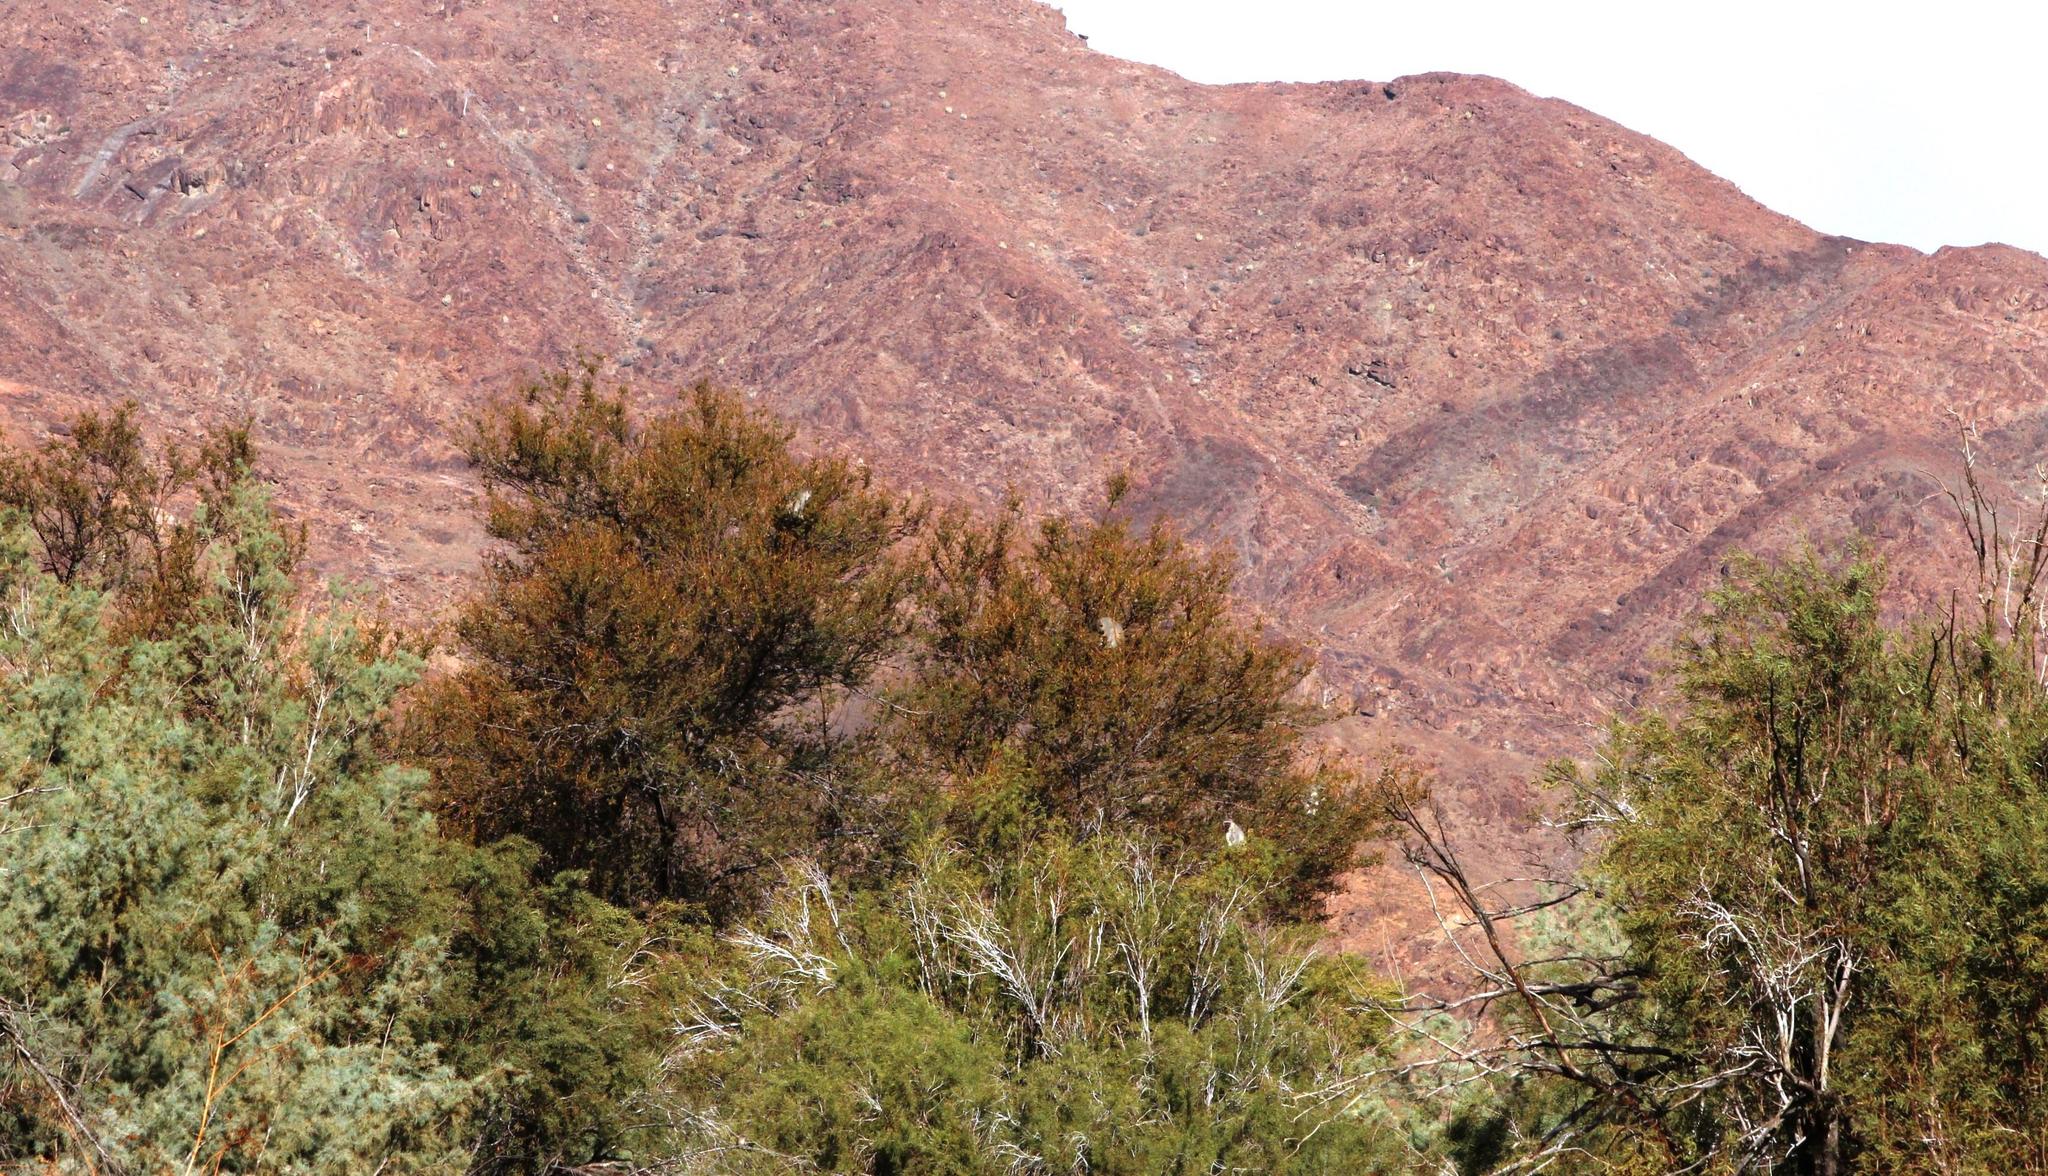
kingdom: Animalia
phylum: Chordata
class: Mammalia
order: Primates
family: Cercopithecidae
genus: Chlorocebus
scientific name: Chlorocebus pygerythrus
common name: Vervet monkey
